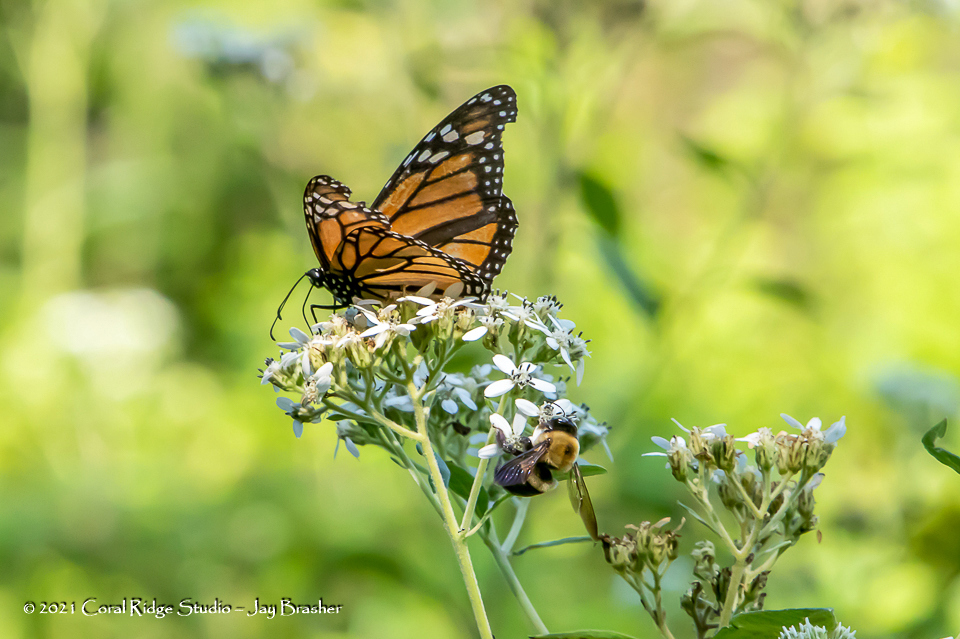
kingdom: Animalia
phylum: Arthropoda
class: Insecta
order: Lepidoptera
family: Nymphalidae
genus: Danaus
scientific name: Danaus plexippus
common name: Monarch
